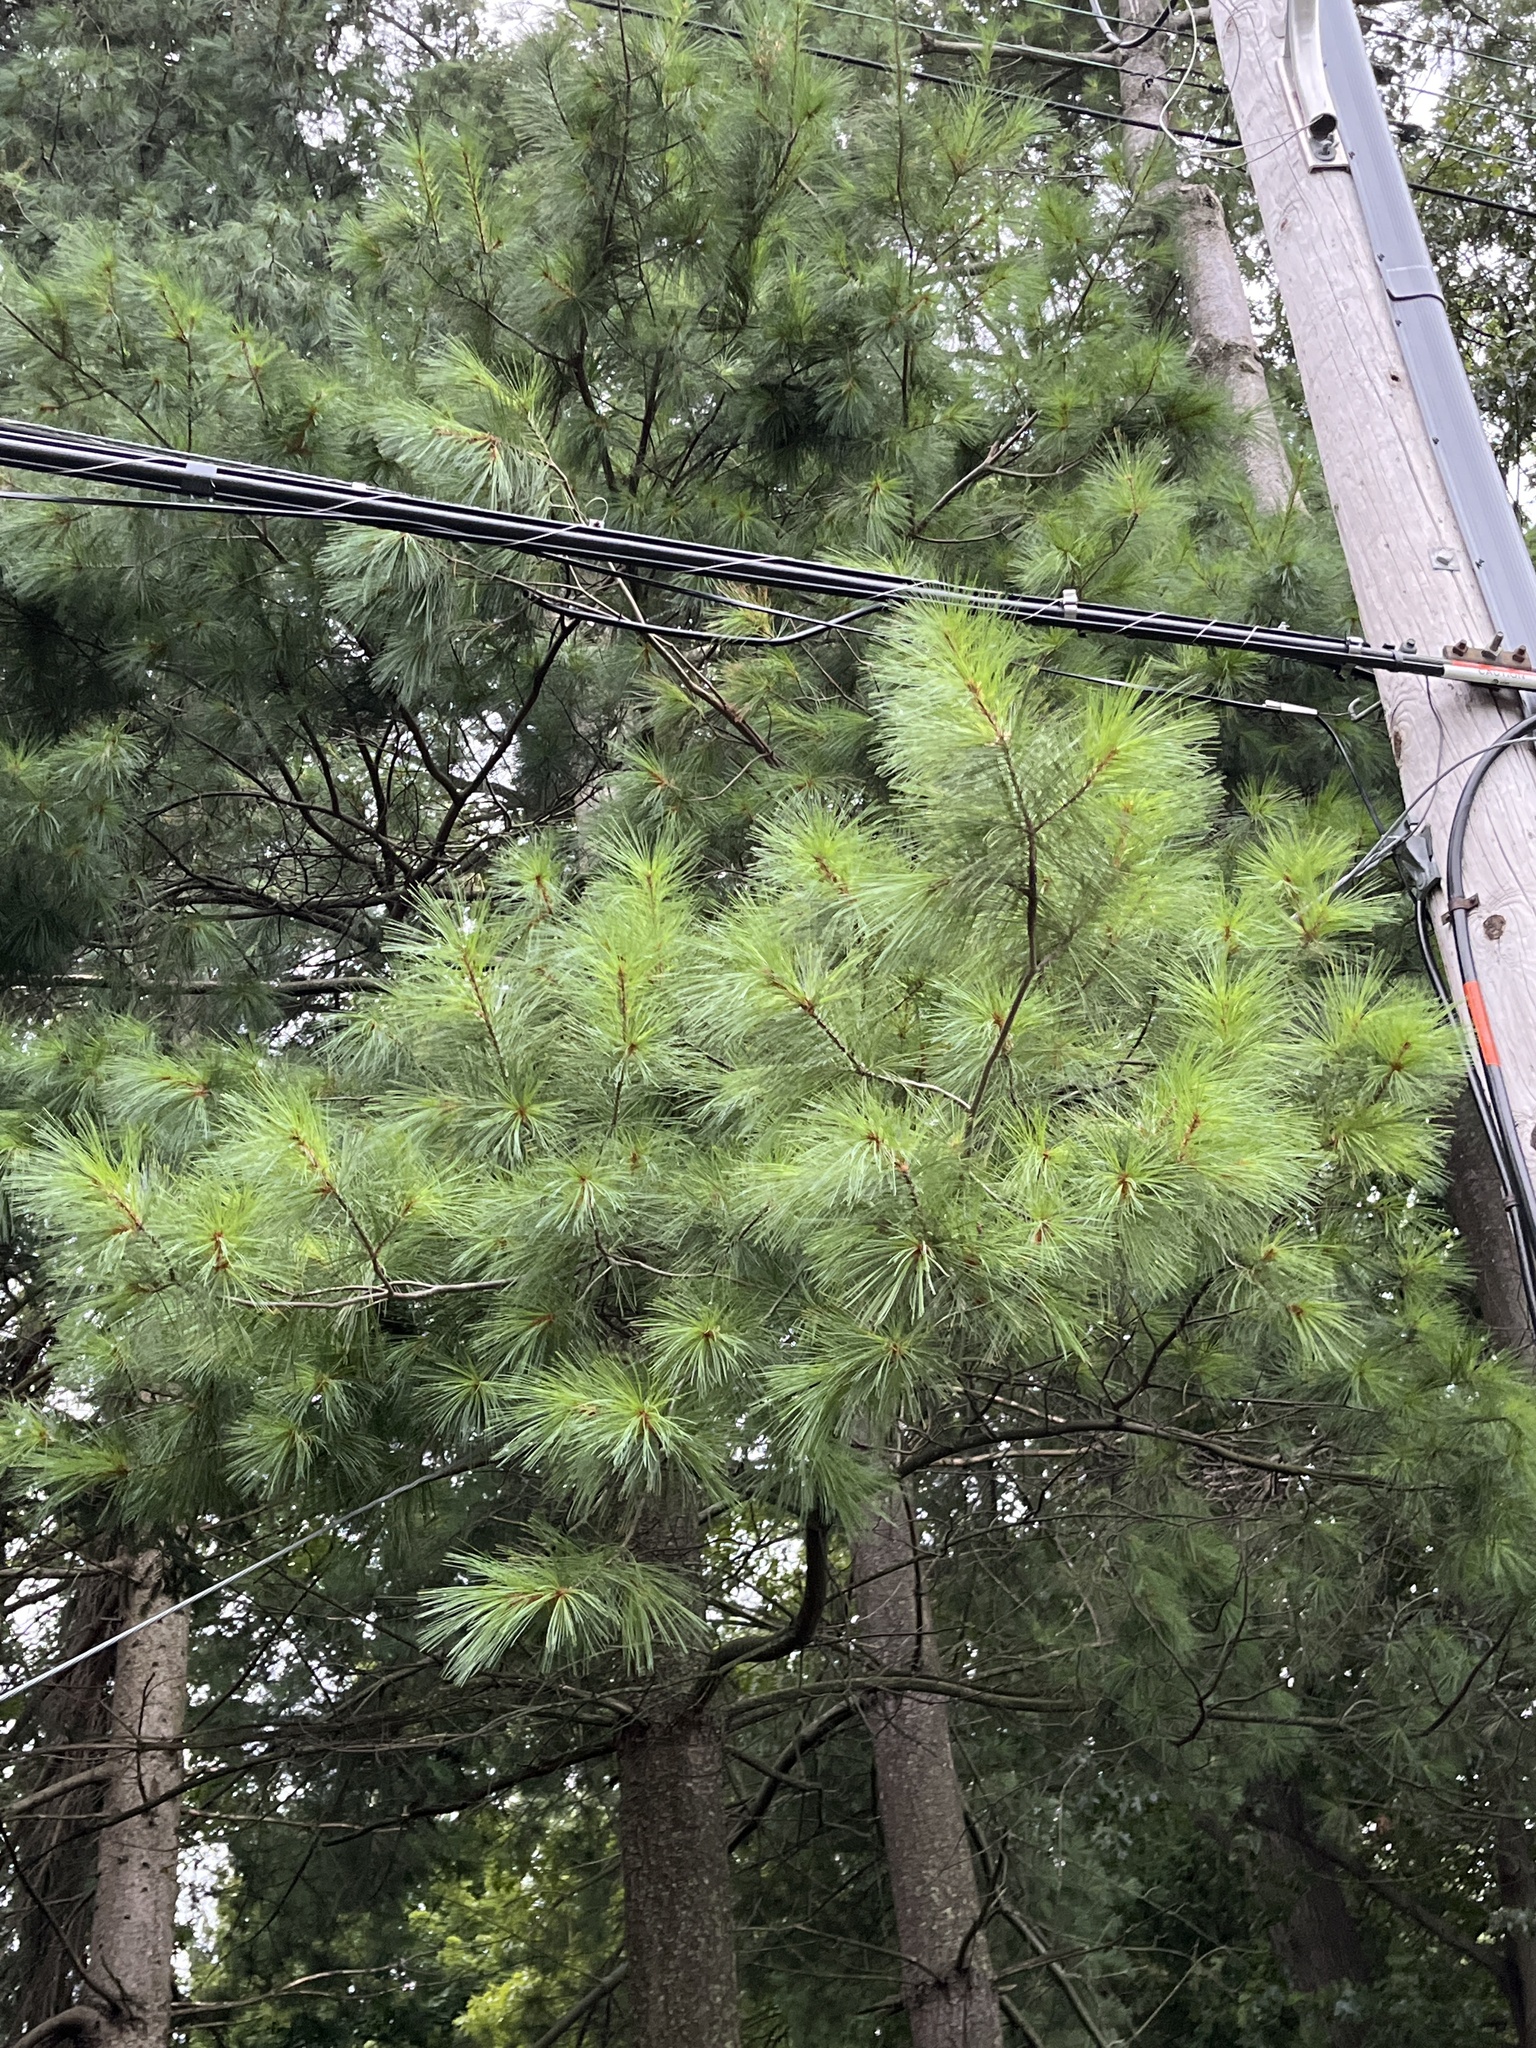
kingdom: Plantae
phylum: Tracheophyta
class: Pinopsida
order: Pinales
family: Pinaceae
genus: Pinus
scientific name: Pinus strobus
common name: Weymouth pine
